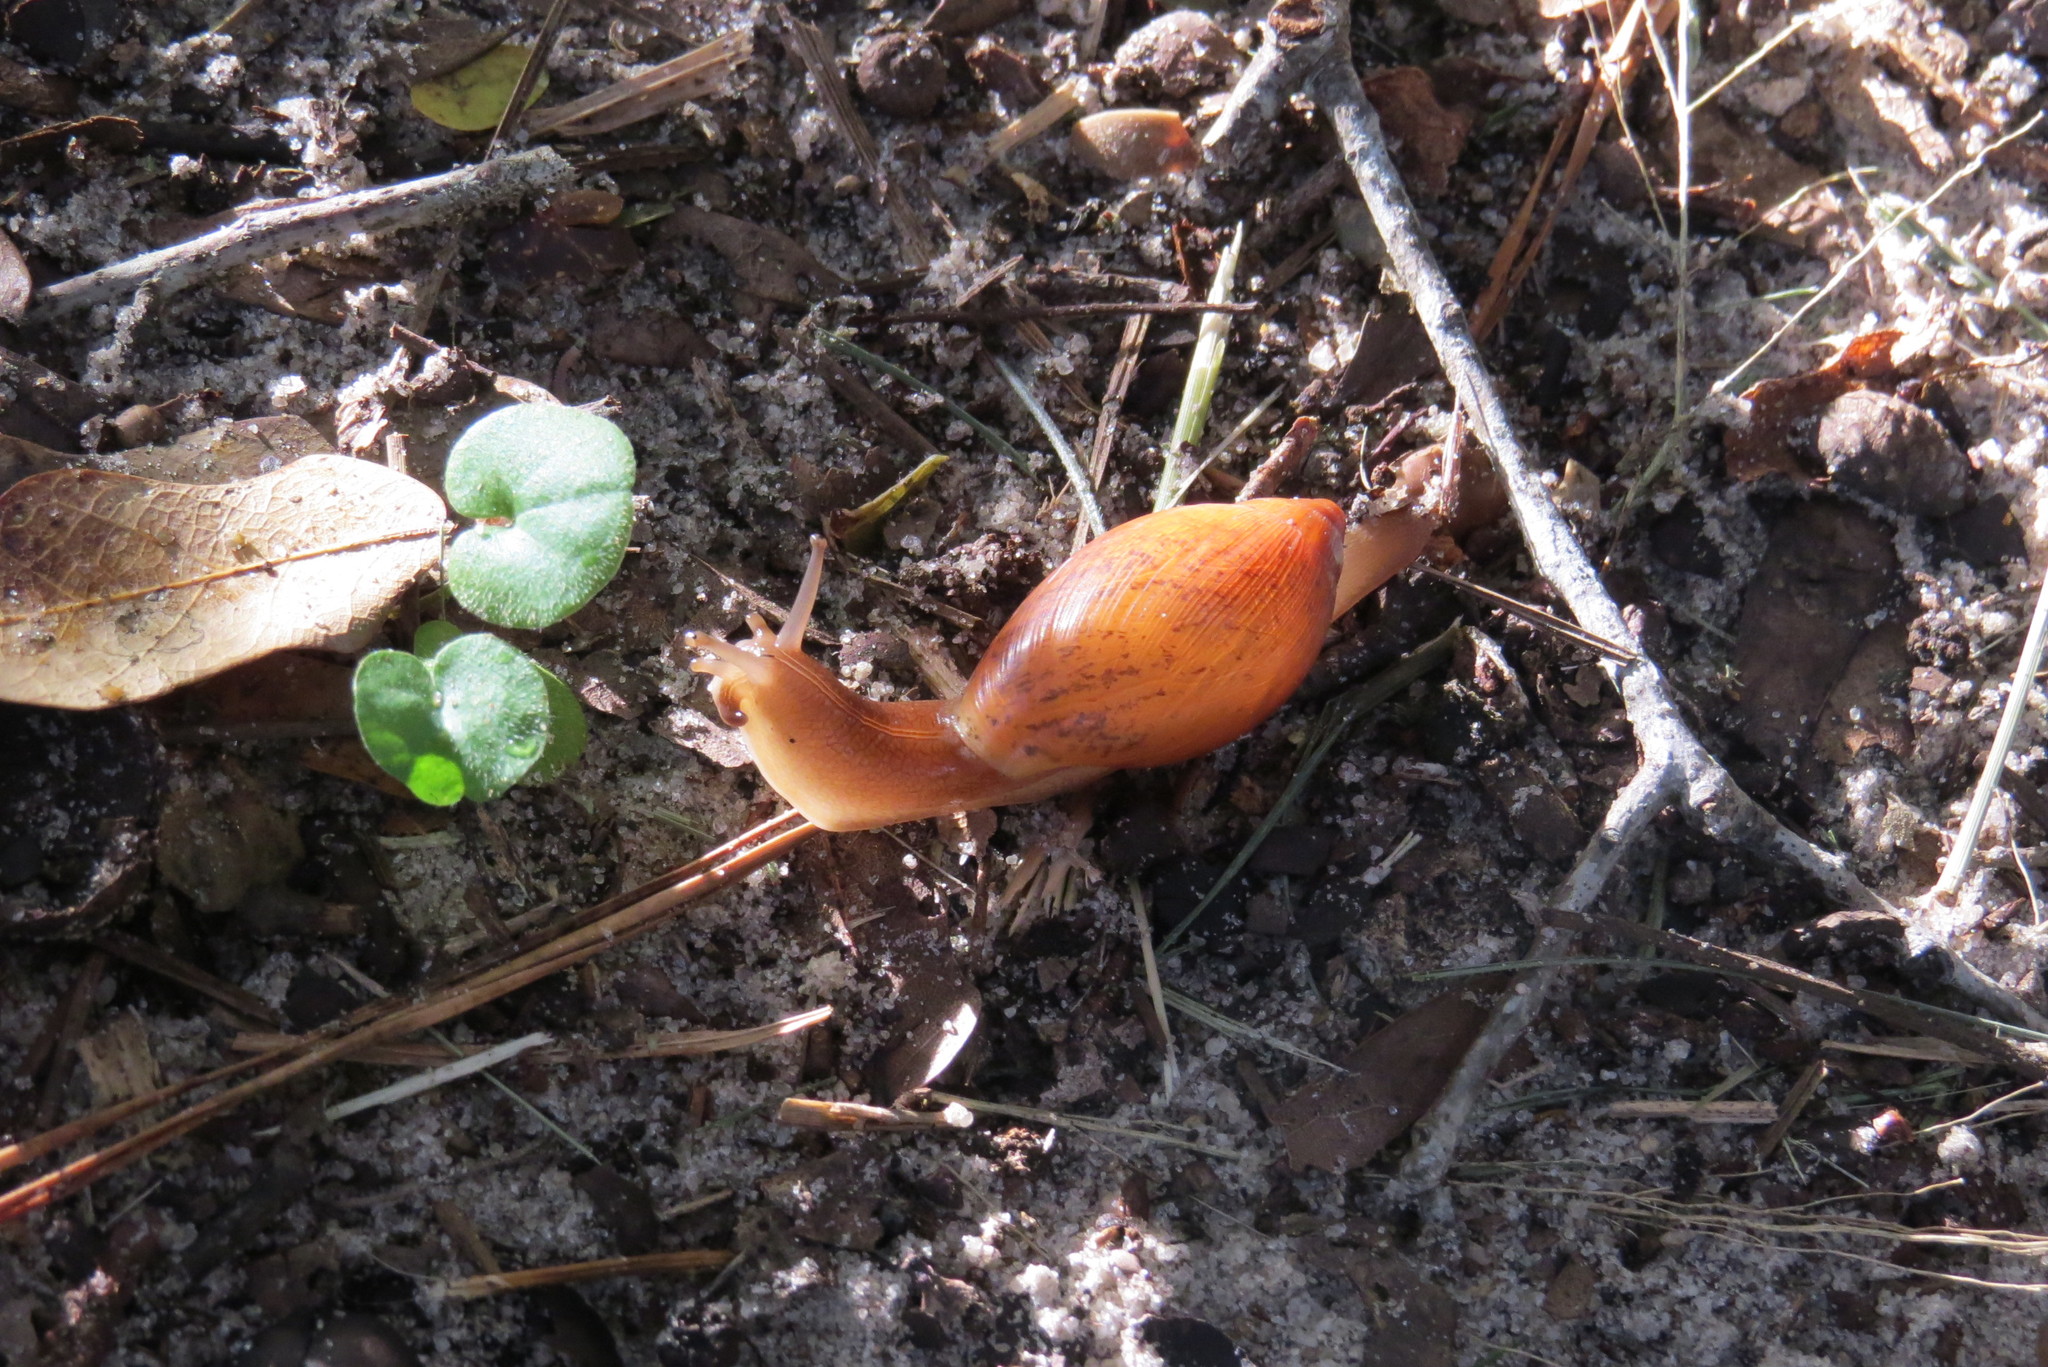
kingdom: Animalia
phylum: Mollusca
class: Gastropoda
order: Stylommatophora
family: Spiraxidae
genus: Euglandina
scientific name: Euglandina rosea
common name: Rosy wolfsnail
